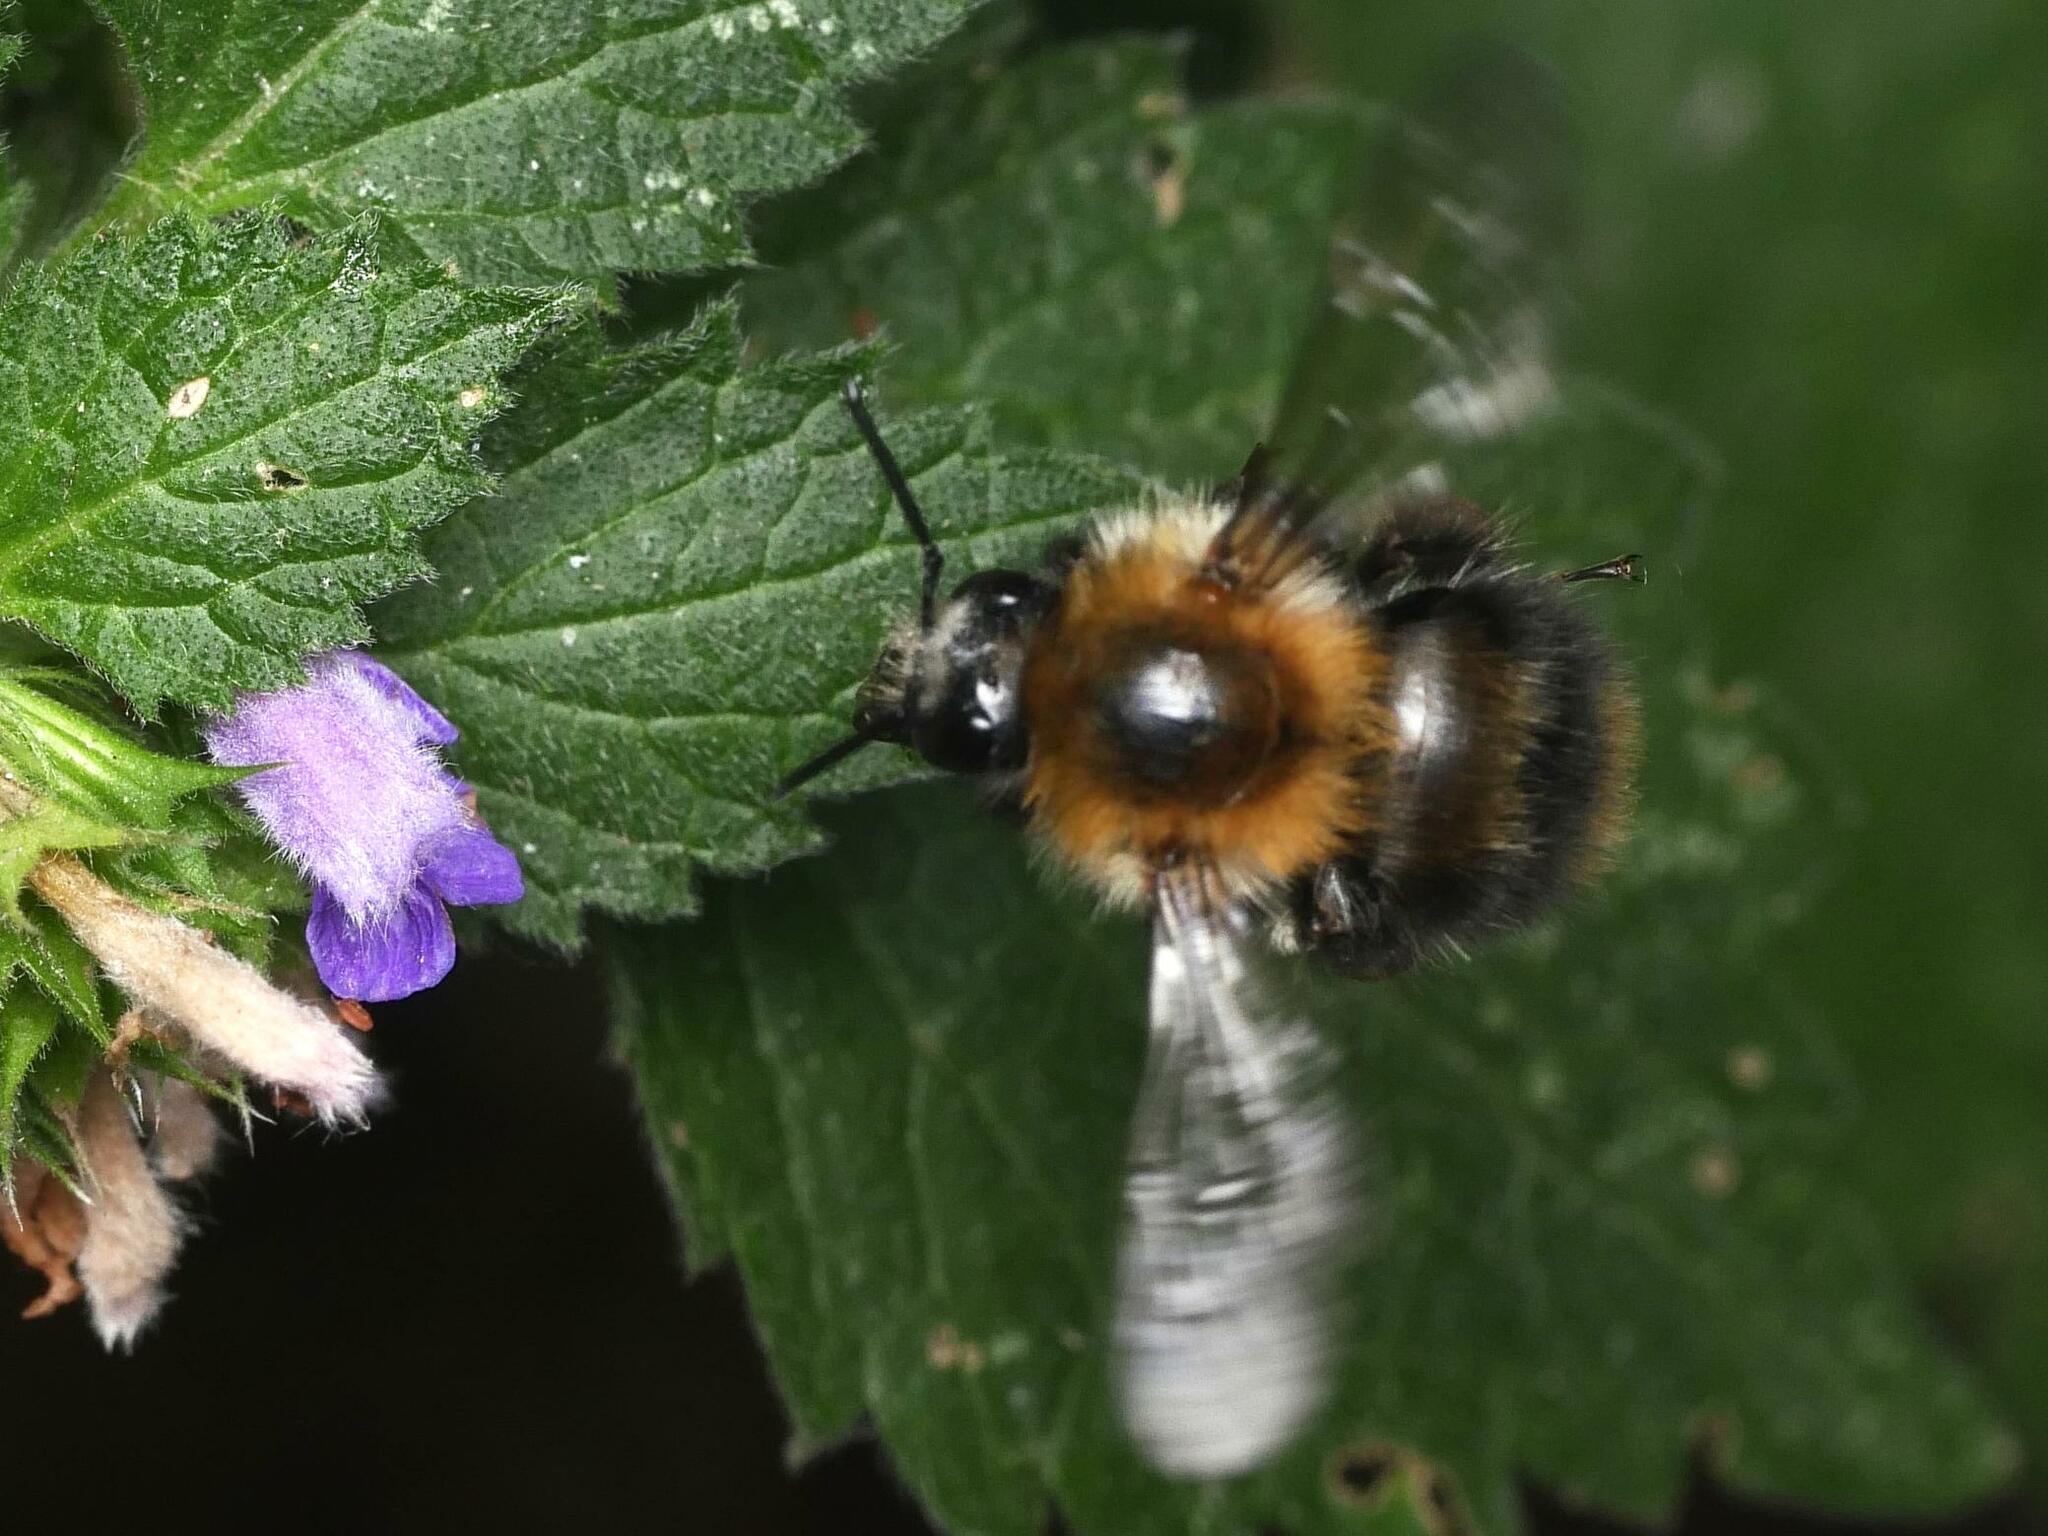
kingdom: Animalia
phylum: Arthropoda
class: Insecta
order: Hymenoptera
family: Apidae
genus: Bombus
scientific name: Bombus pascuorum
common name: Common carder bee
